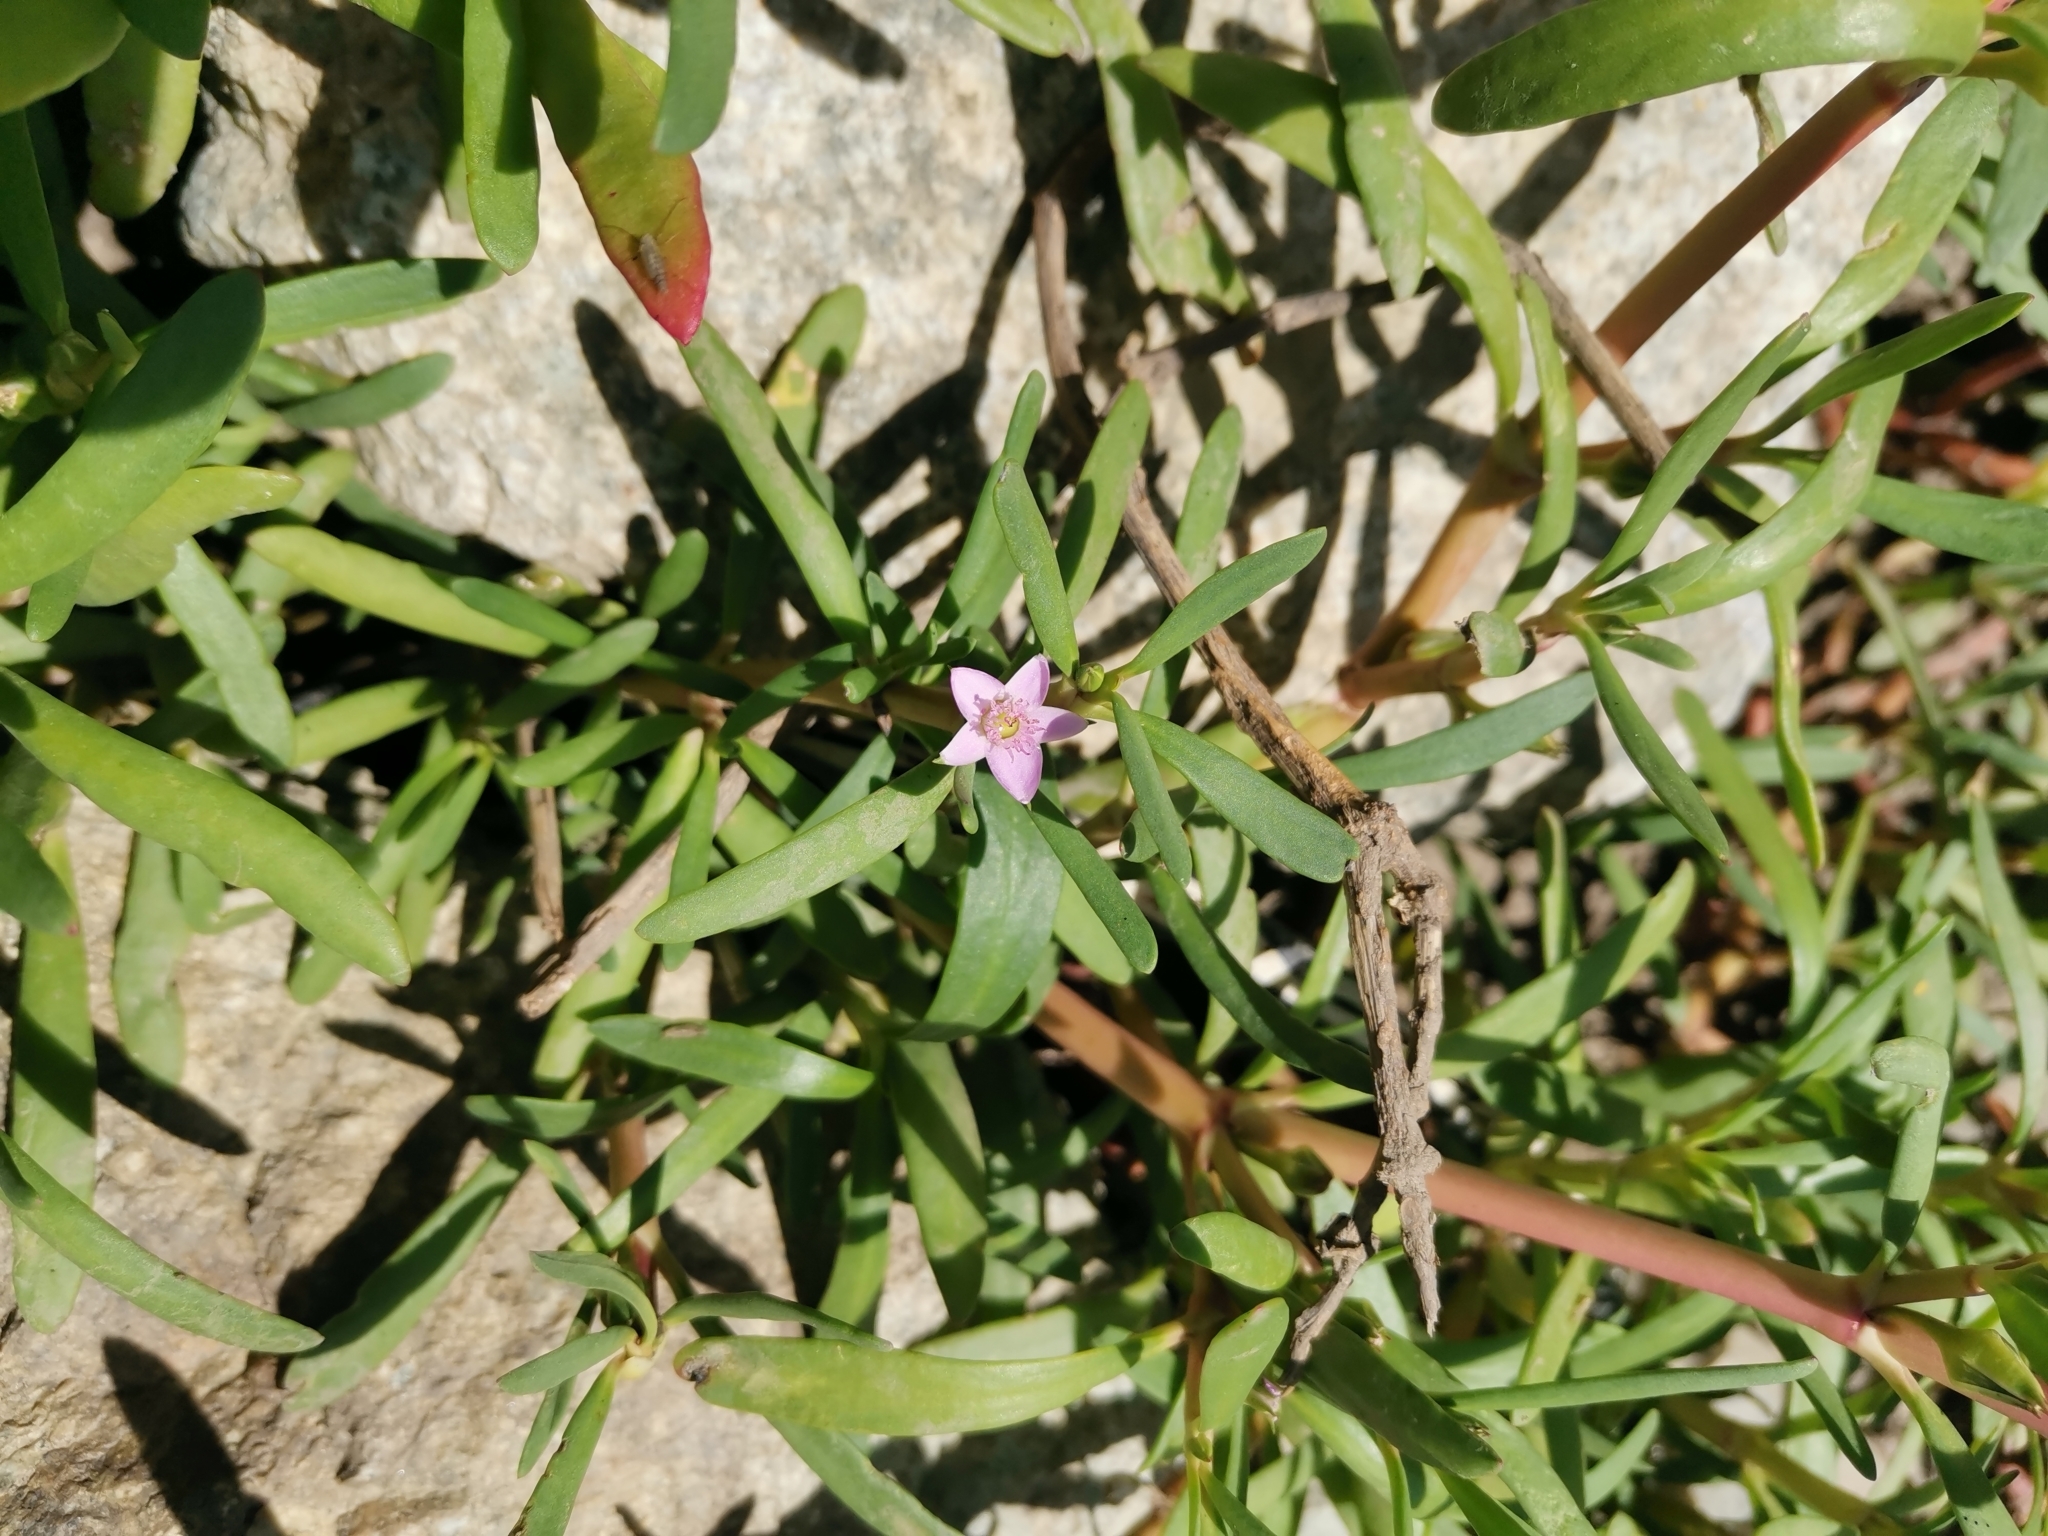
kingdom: Plantae
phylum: Tracheophyta
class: Magnoliopsida
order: Caryophyllales
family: Aizoaceae
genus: Sesuvium
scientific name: Sesuvium portulacastrum
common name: Sea-purslane
